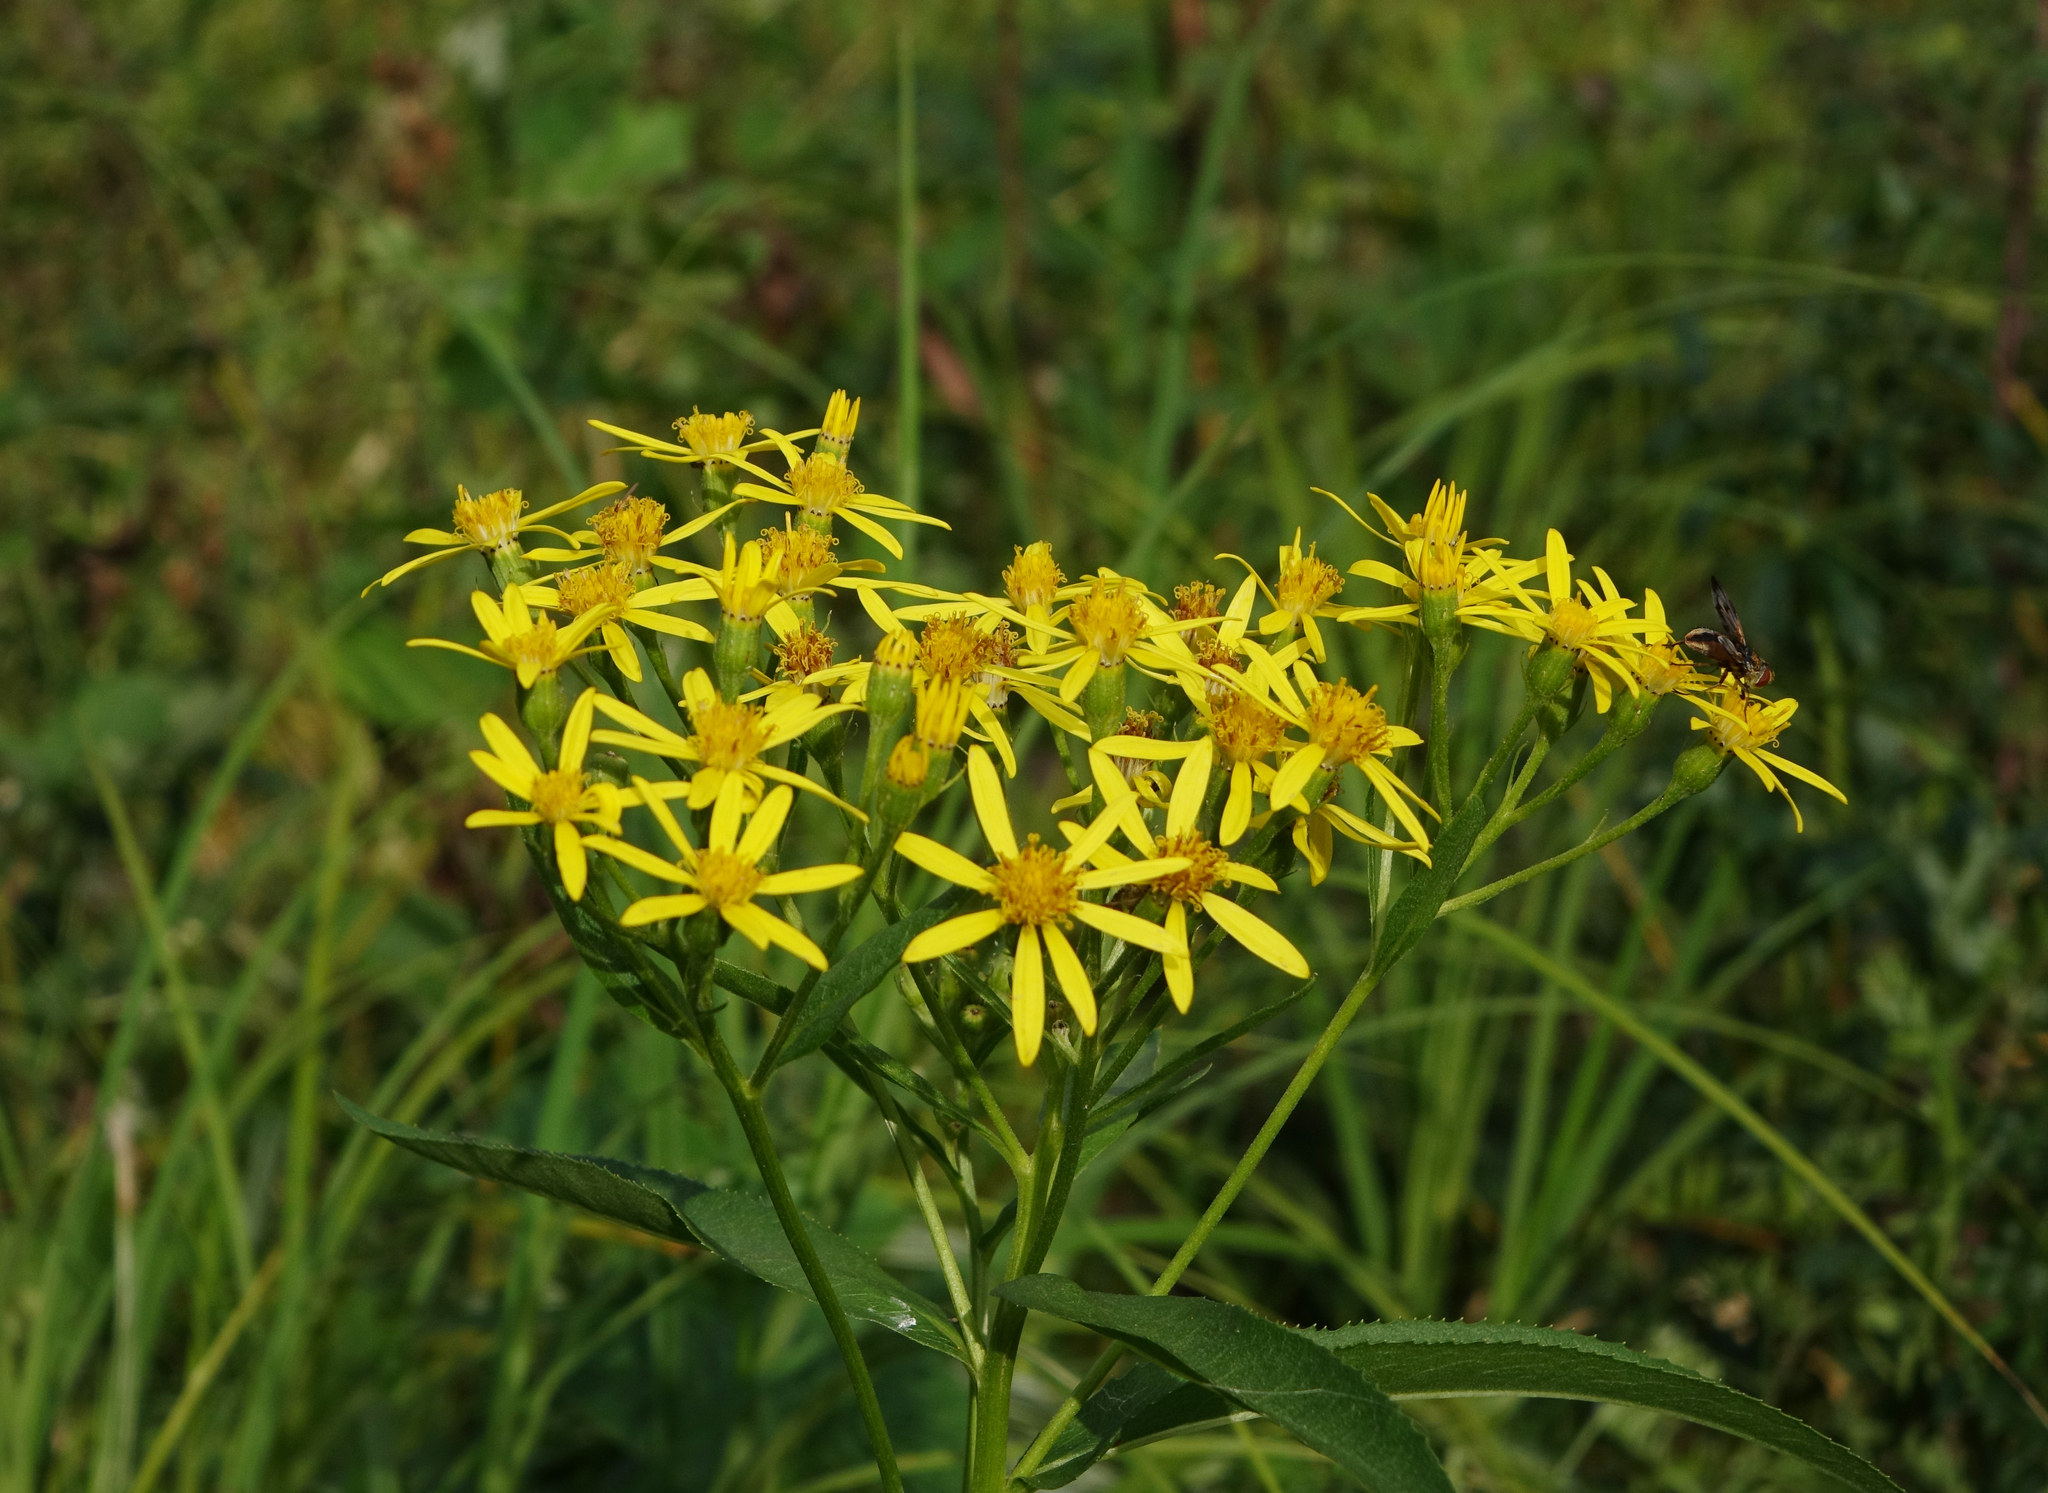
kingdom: Plantae
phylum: Tracheophyta
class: Magnoliopsida
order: Asterales
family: Asteraceae
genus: Senecio
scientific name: Senecio nemorensis
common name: Alpine ragwort
